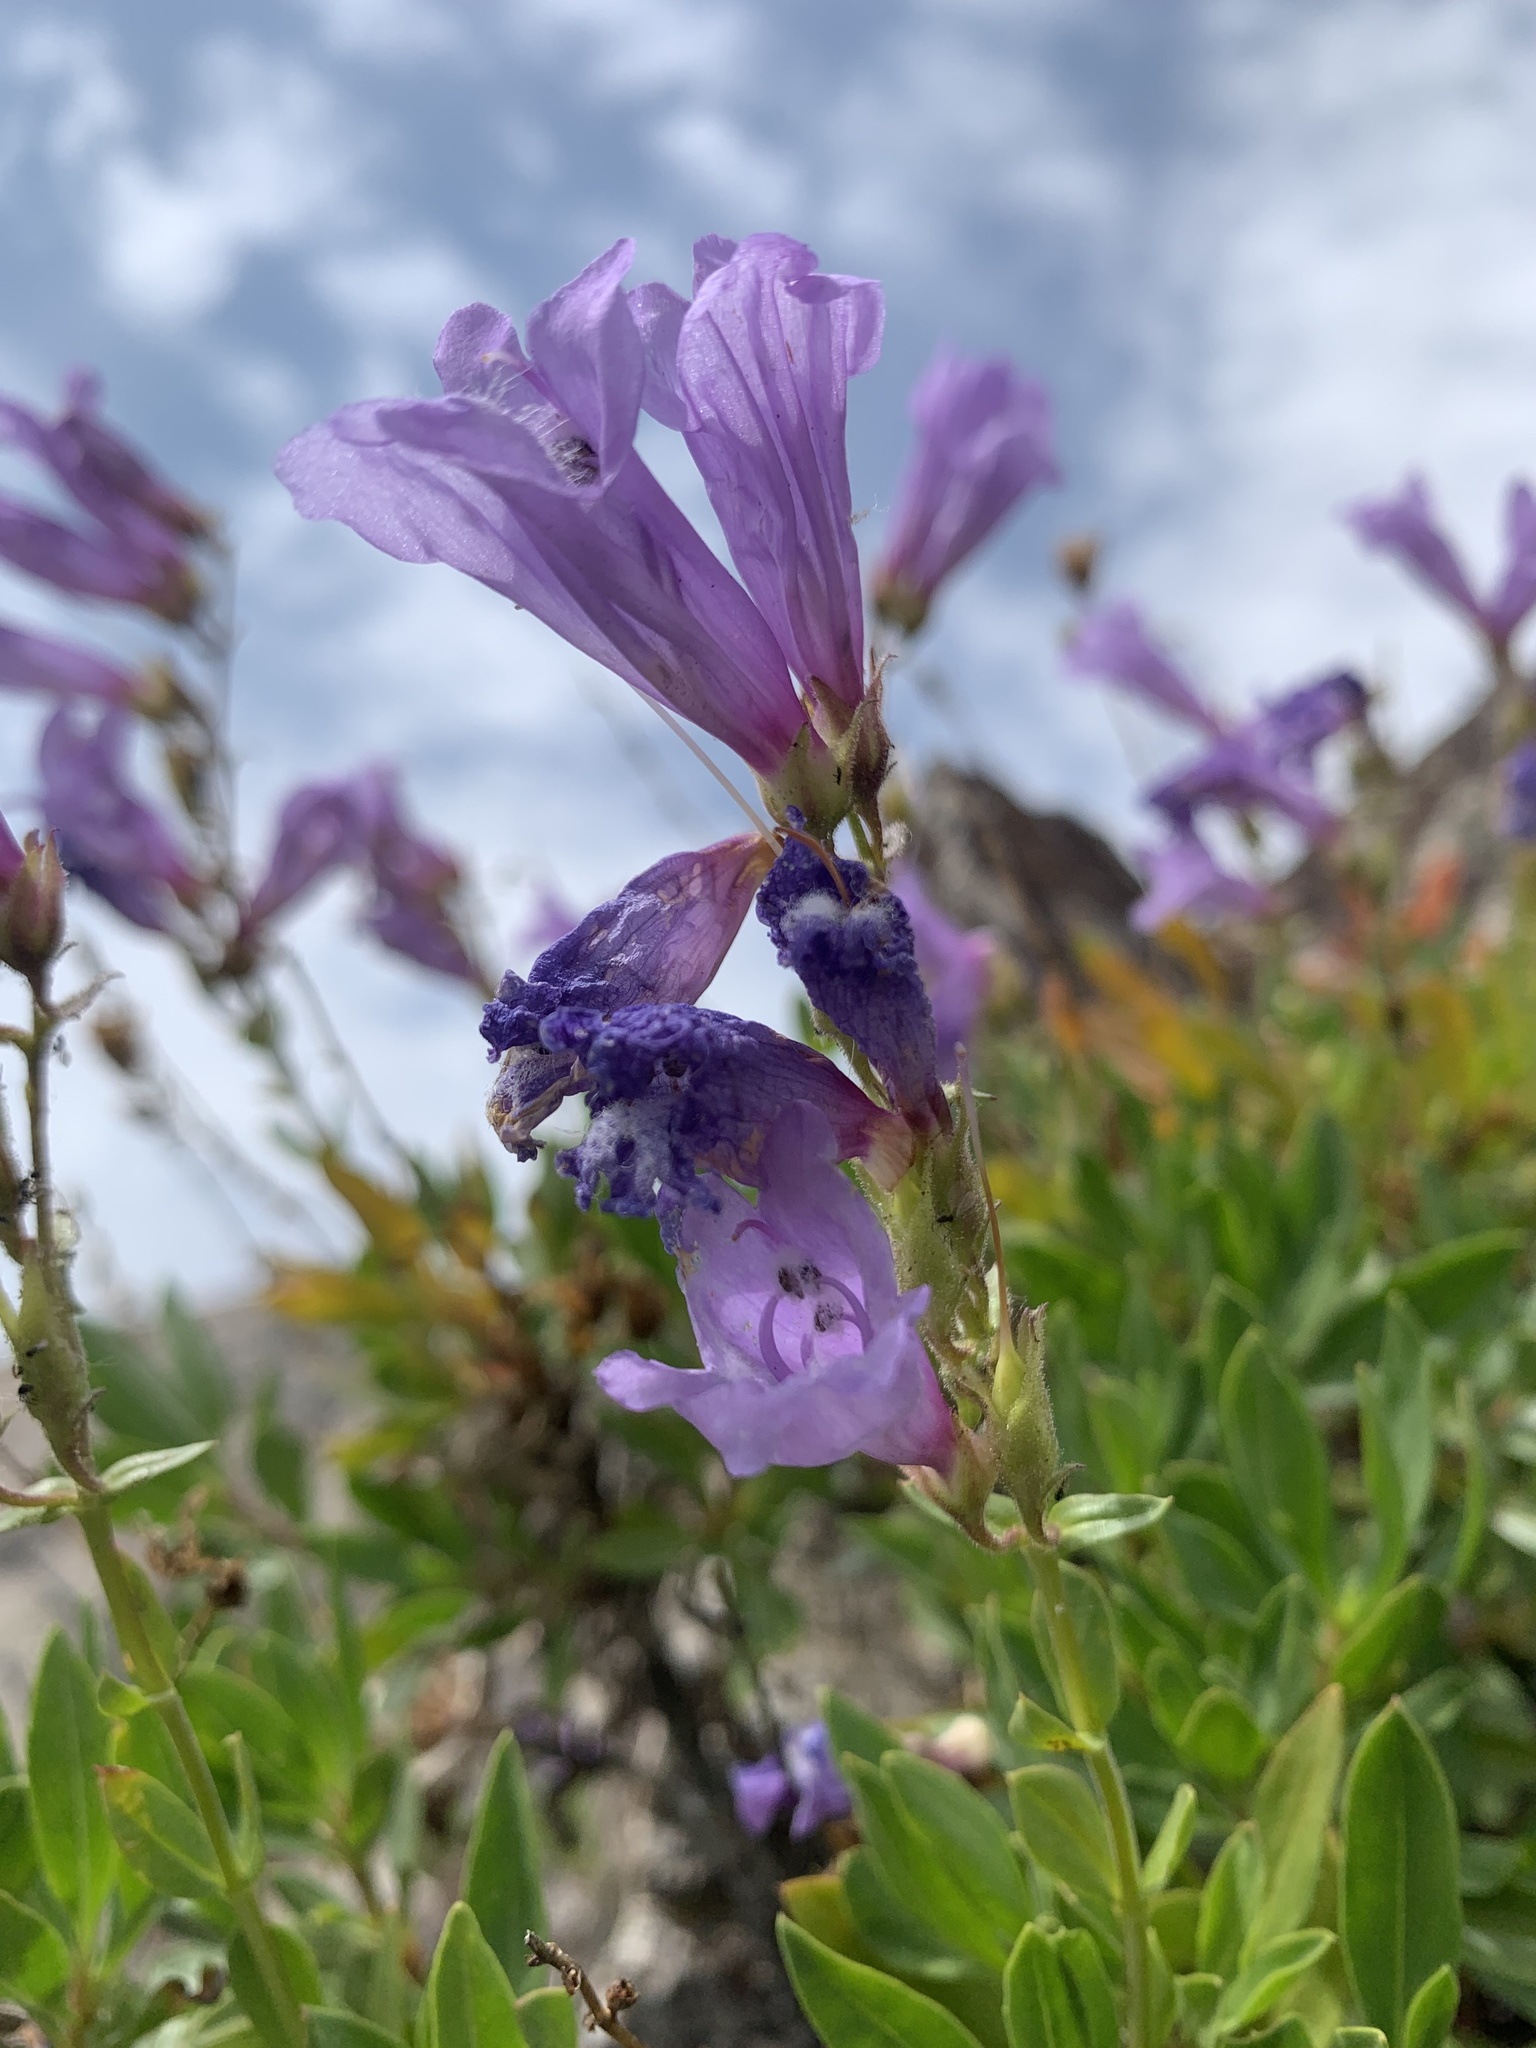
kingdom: Plantae
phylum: Tracheophyta
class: Magnoliopsida
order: Lamiales
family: Plantaginaceae
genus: Penstemon
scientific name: Penstemon fruticosus
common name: Bush penstemon
